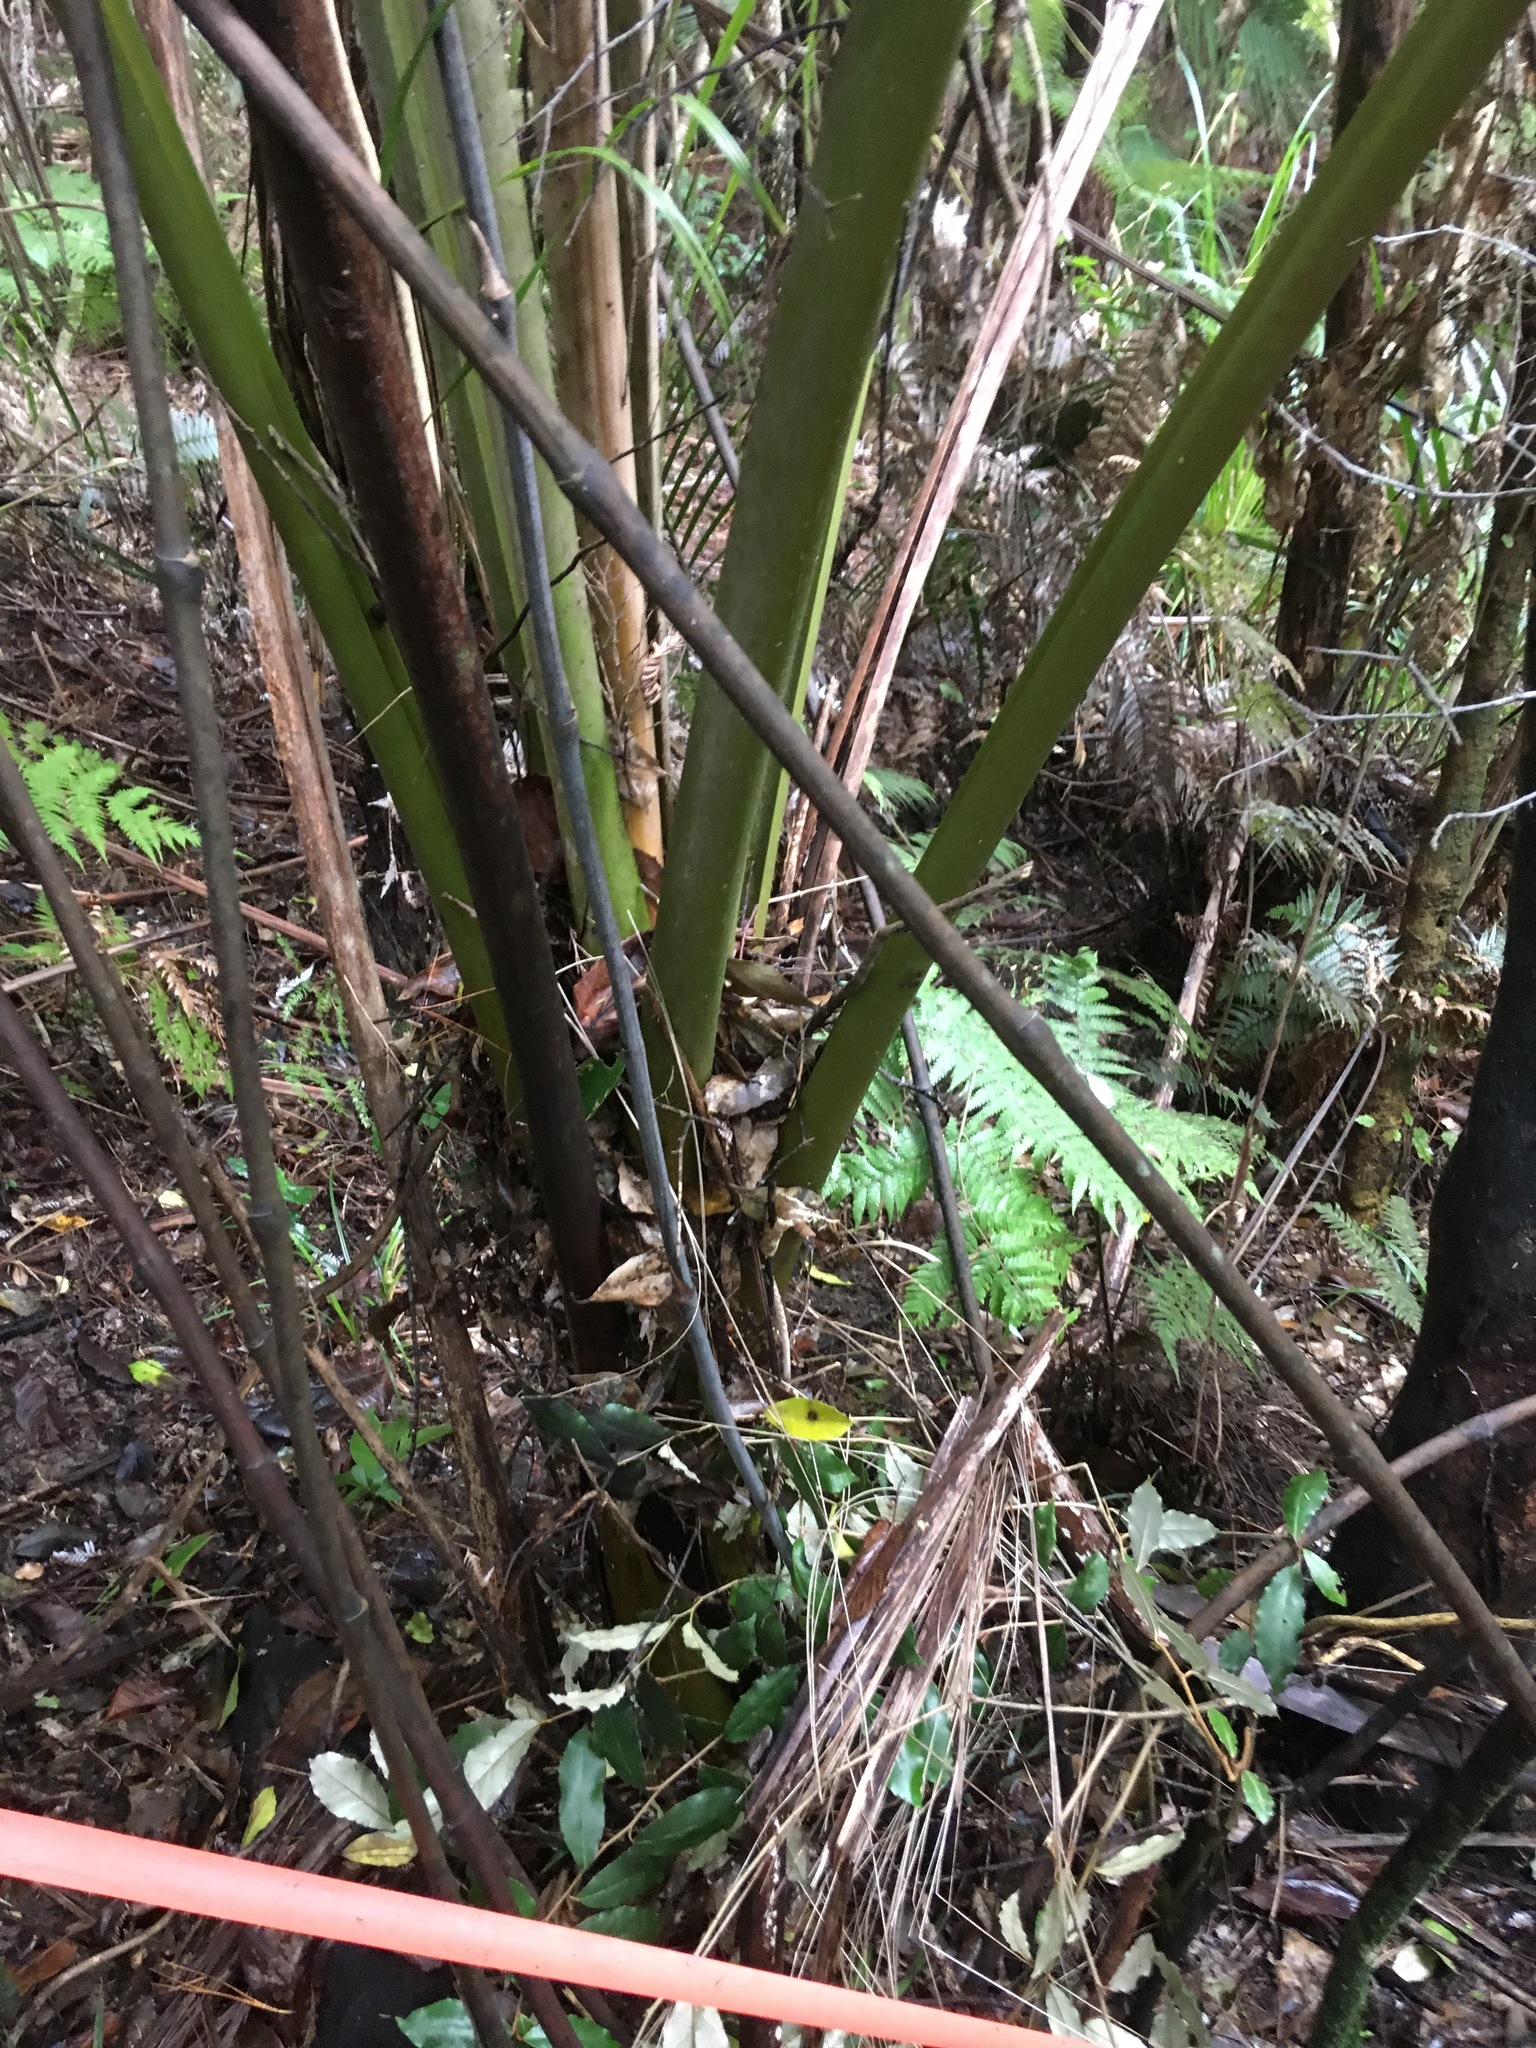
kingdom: Plantae
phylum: Tracheophyta
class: Magnoliopsida
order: Rosales
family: Elaeagnaceae
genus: Elaeagnus
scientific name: Elaeagnus reflexa
